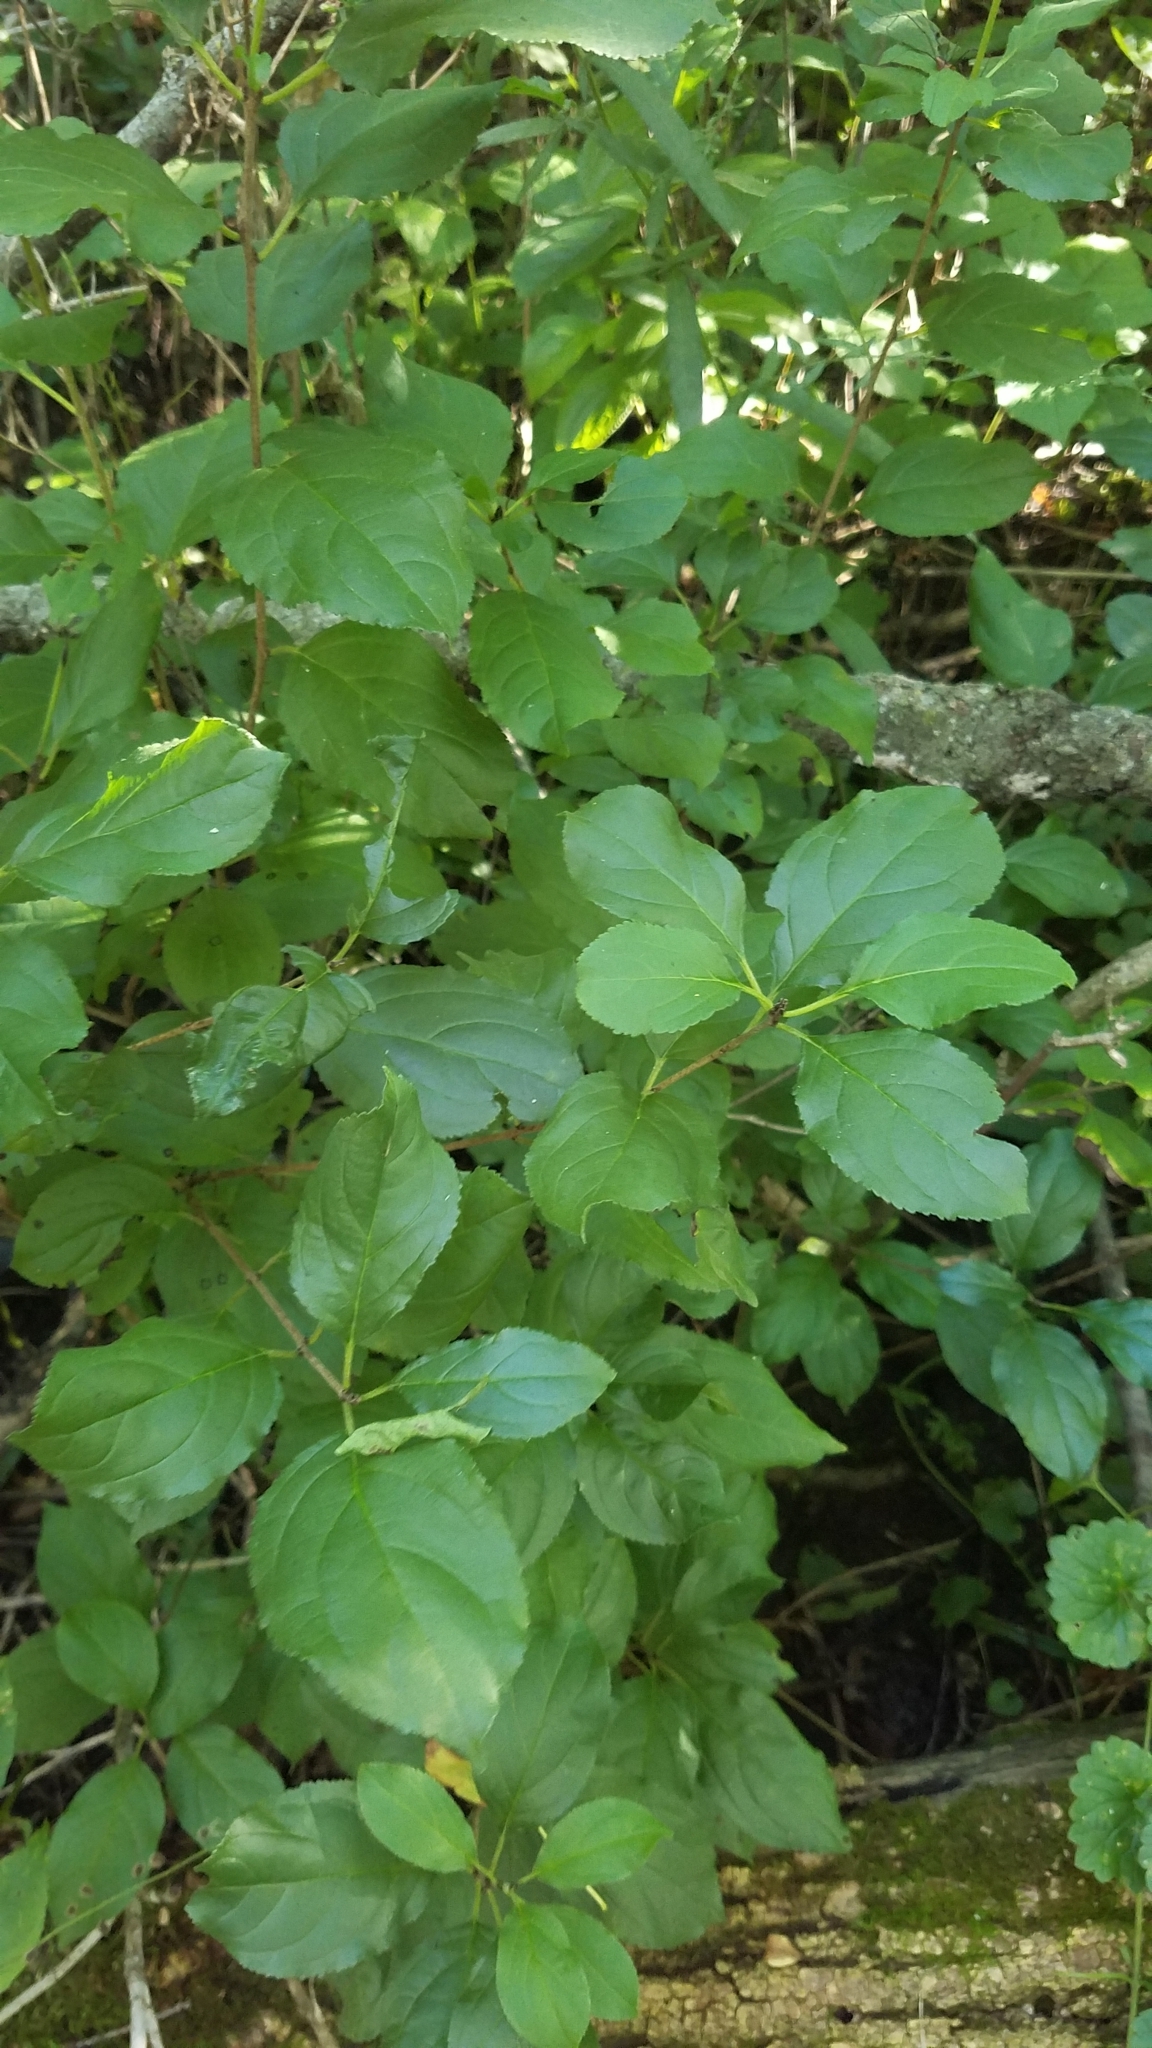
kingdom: Plantae
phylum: Tracheophyta
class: Magnoliopsida
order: Rosales
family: Rhamnaceae
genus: Rhamnus
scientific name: Rhamnus cathartica
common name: Common buckthorn
